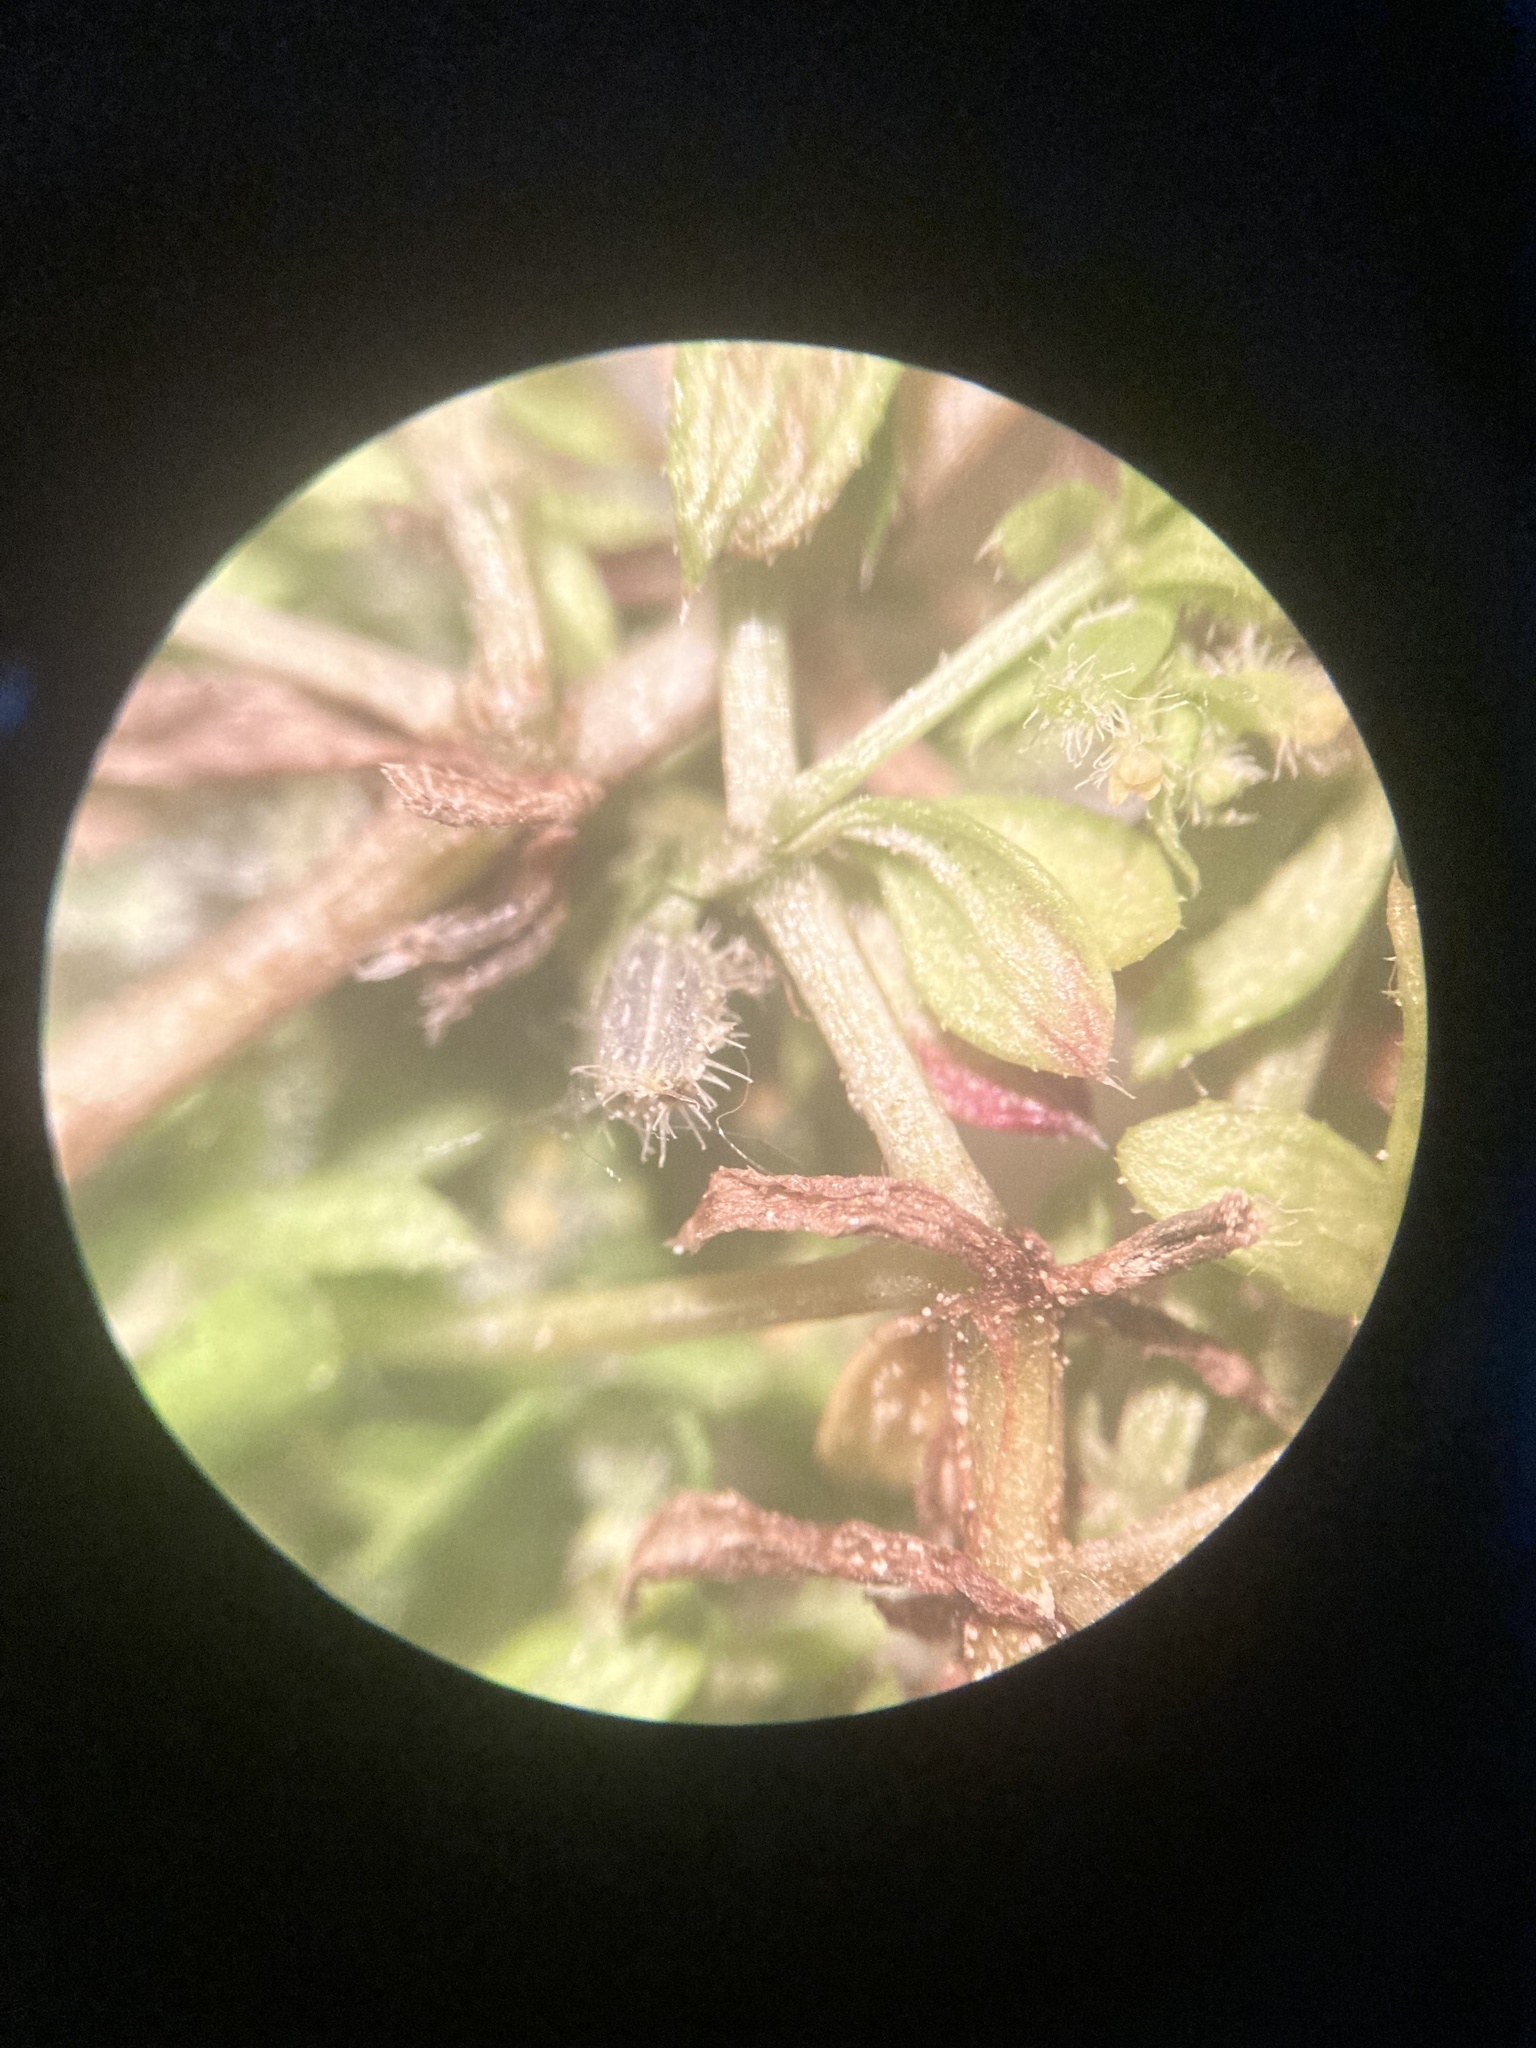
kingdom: Plantae
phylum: Tracheophyta
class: Magnoliopsida
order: Gentianales
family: Rubiaceae
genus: Galium
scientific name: Galium murale
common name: Yellow wall bedstraw
